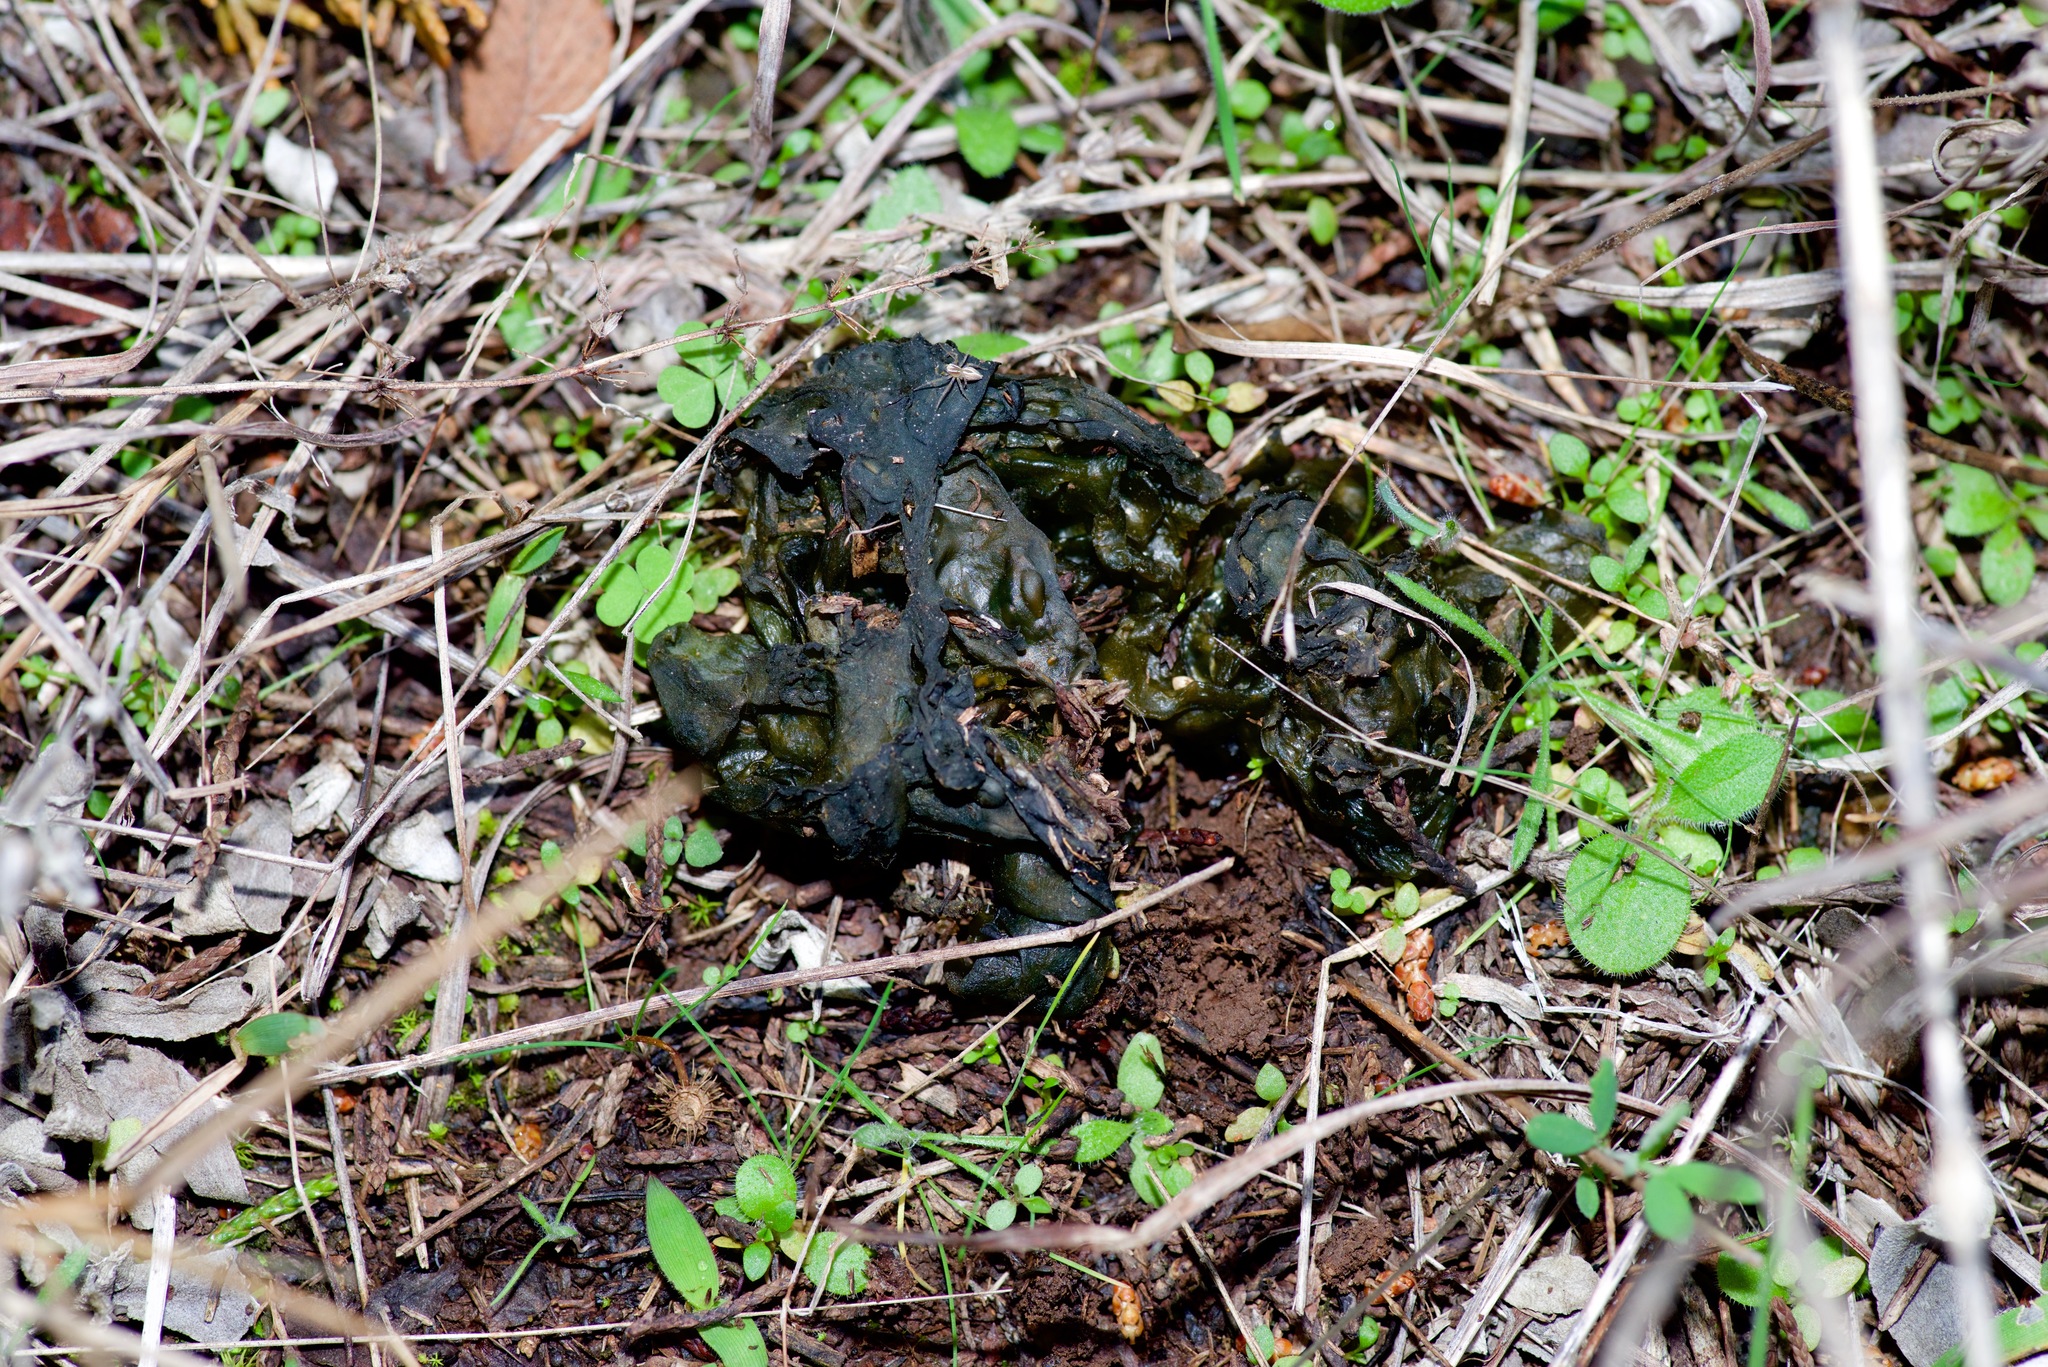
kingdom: Bacteria
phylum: Cyanobacteria
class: Cyanobacteriia
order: Cyanobacteriales
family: Nostocaceae
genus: Nostoc
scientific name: Nostoc commune
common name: Star jelly
